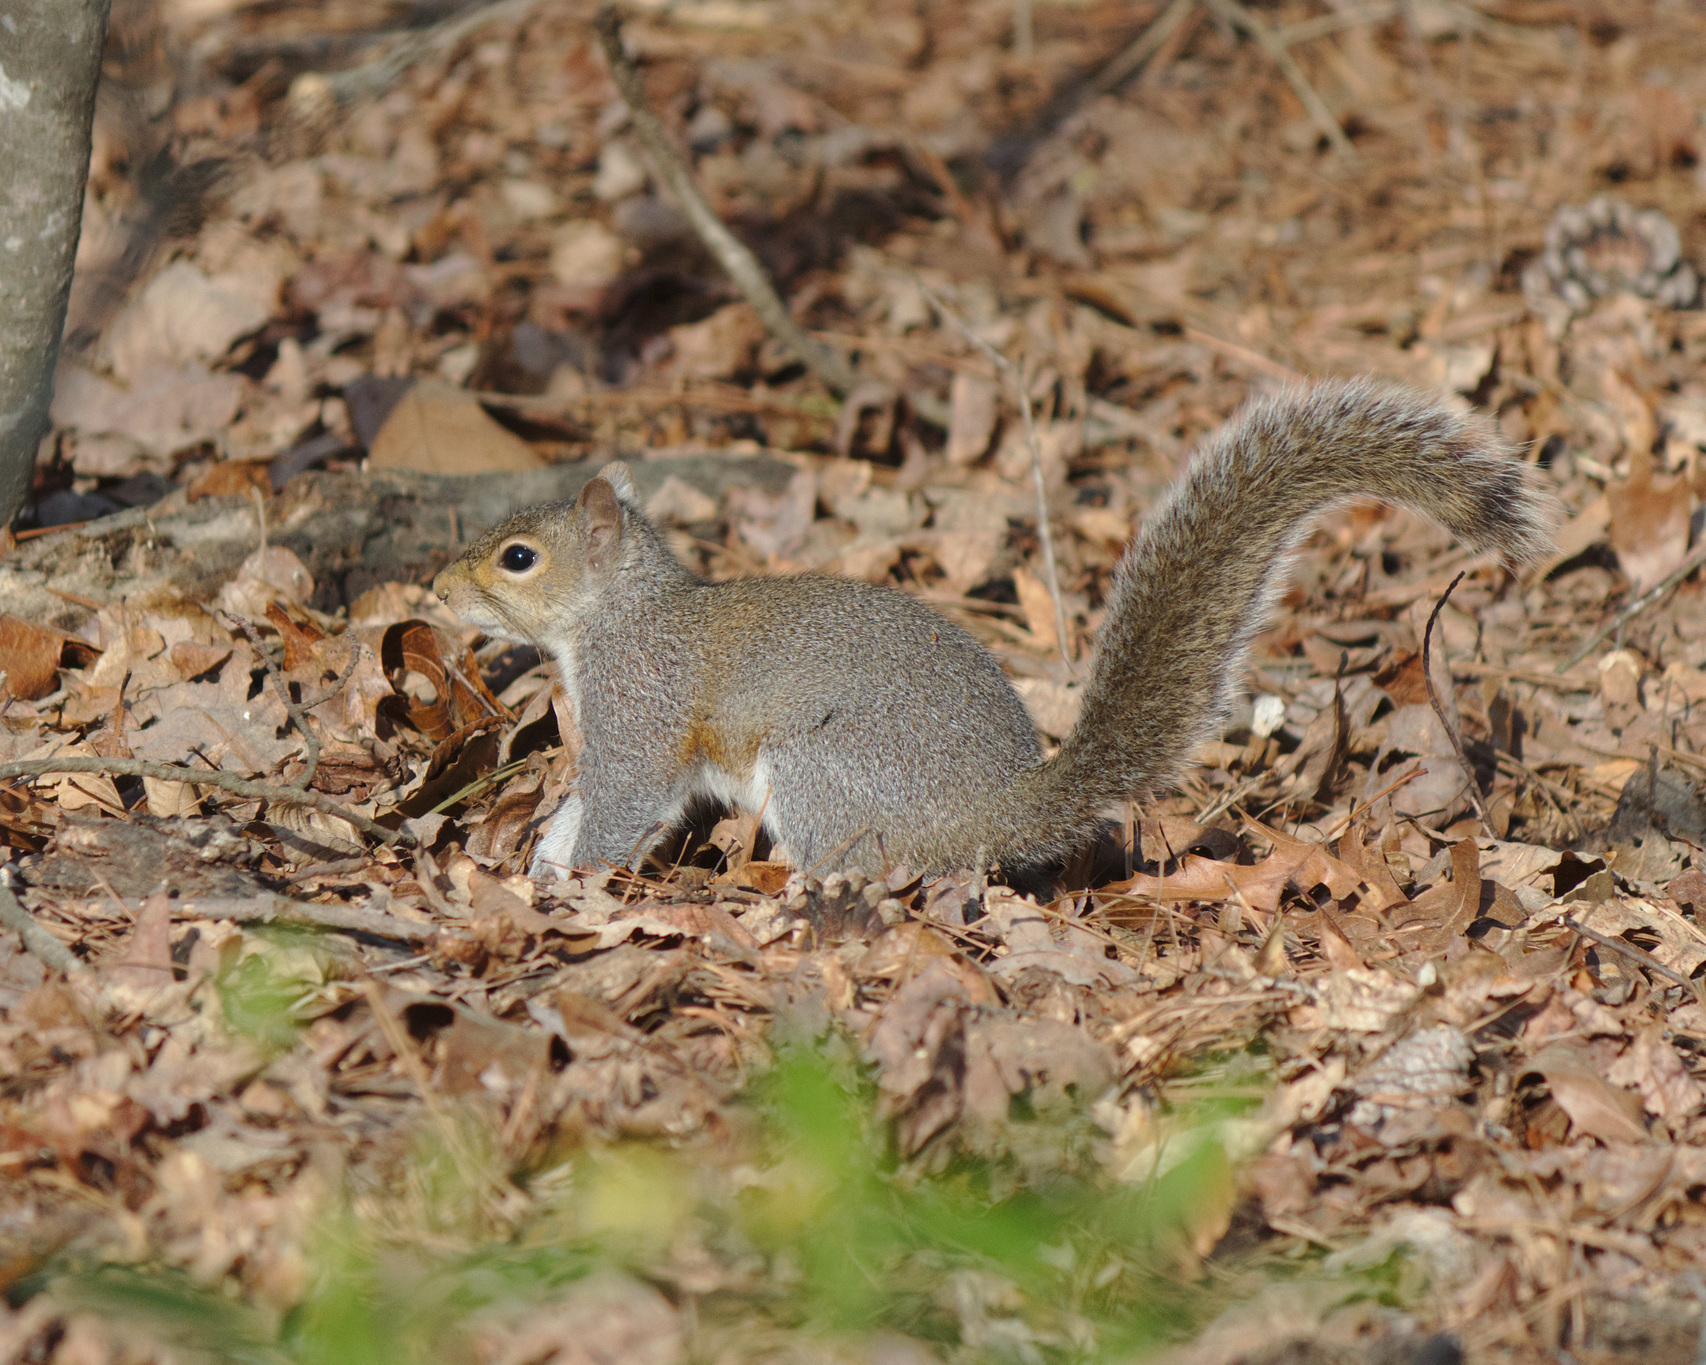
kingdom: Animalia
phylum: Chordata
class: Mammalia
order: Rodentia
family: Sciuridae
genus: Sciurus
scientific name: Sciurus carolinensis
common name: Eastern gray squirrel
